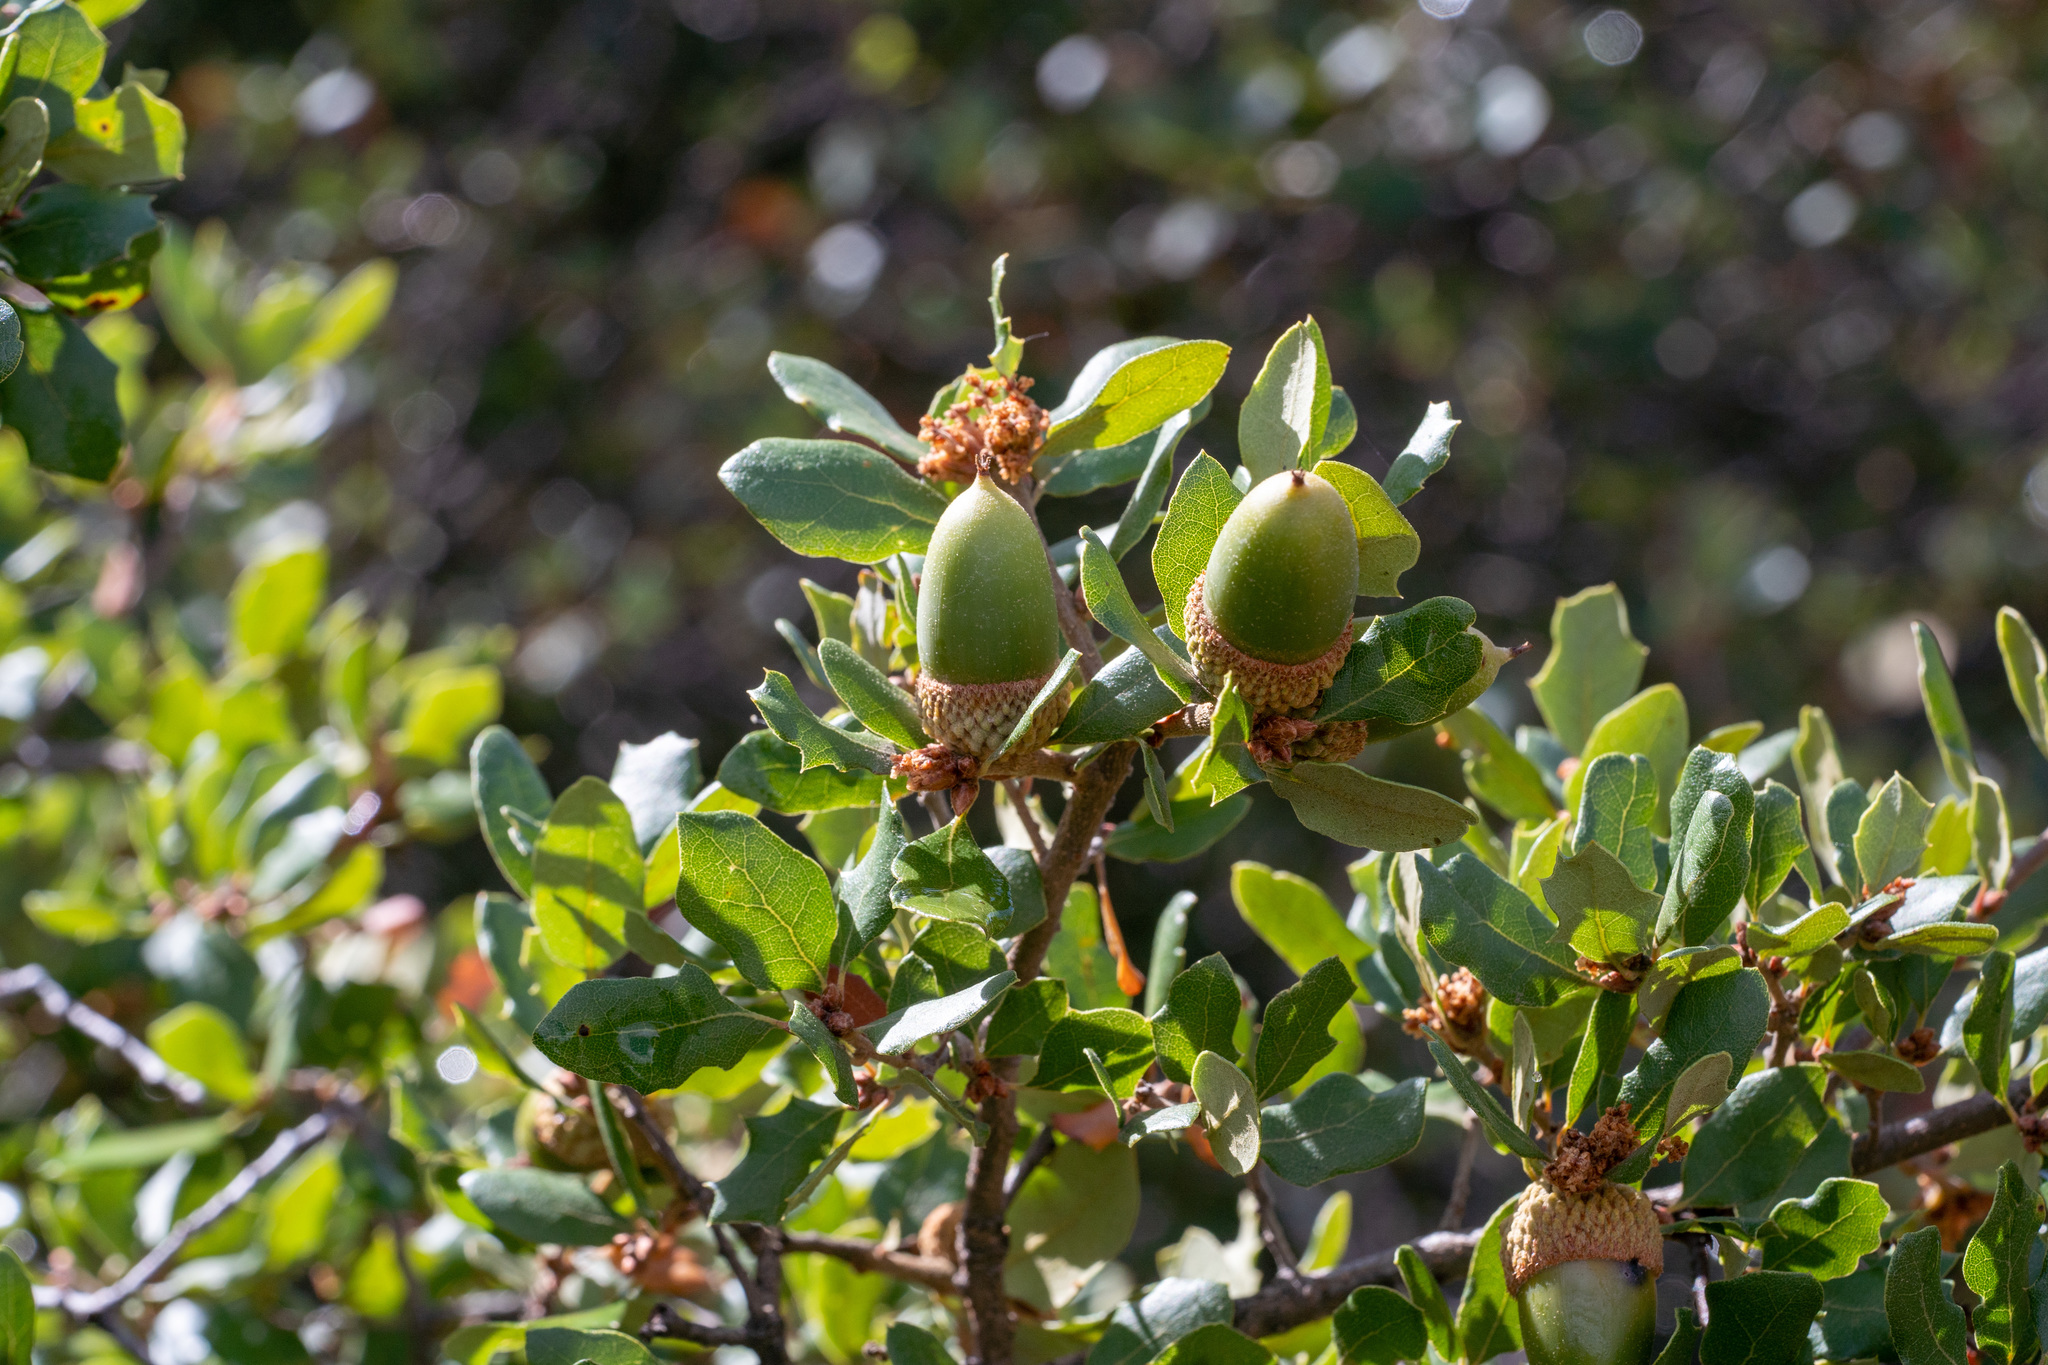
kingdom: Plantae
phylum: Tracheophyta
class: Magnoliopsida
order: Fagales
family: Fagaceae
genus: Quercus
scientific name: Quercus berberidifolia
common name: California scrub oak
